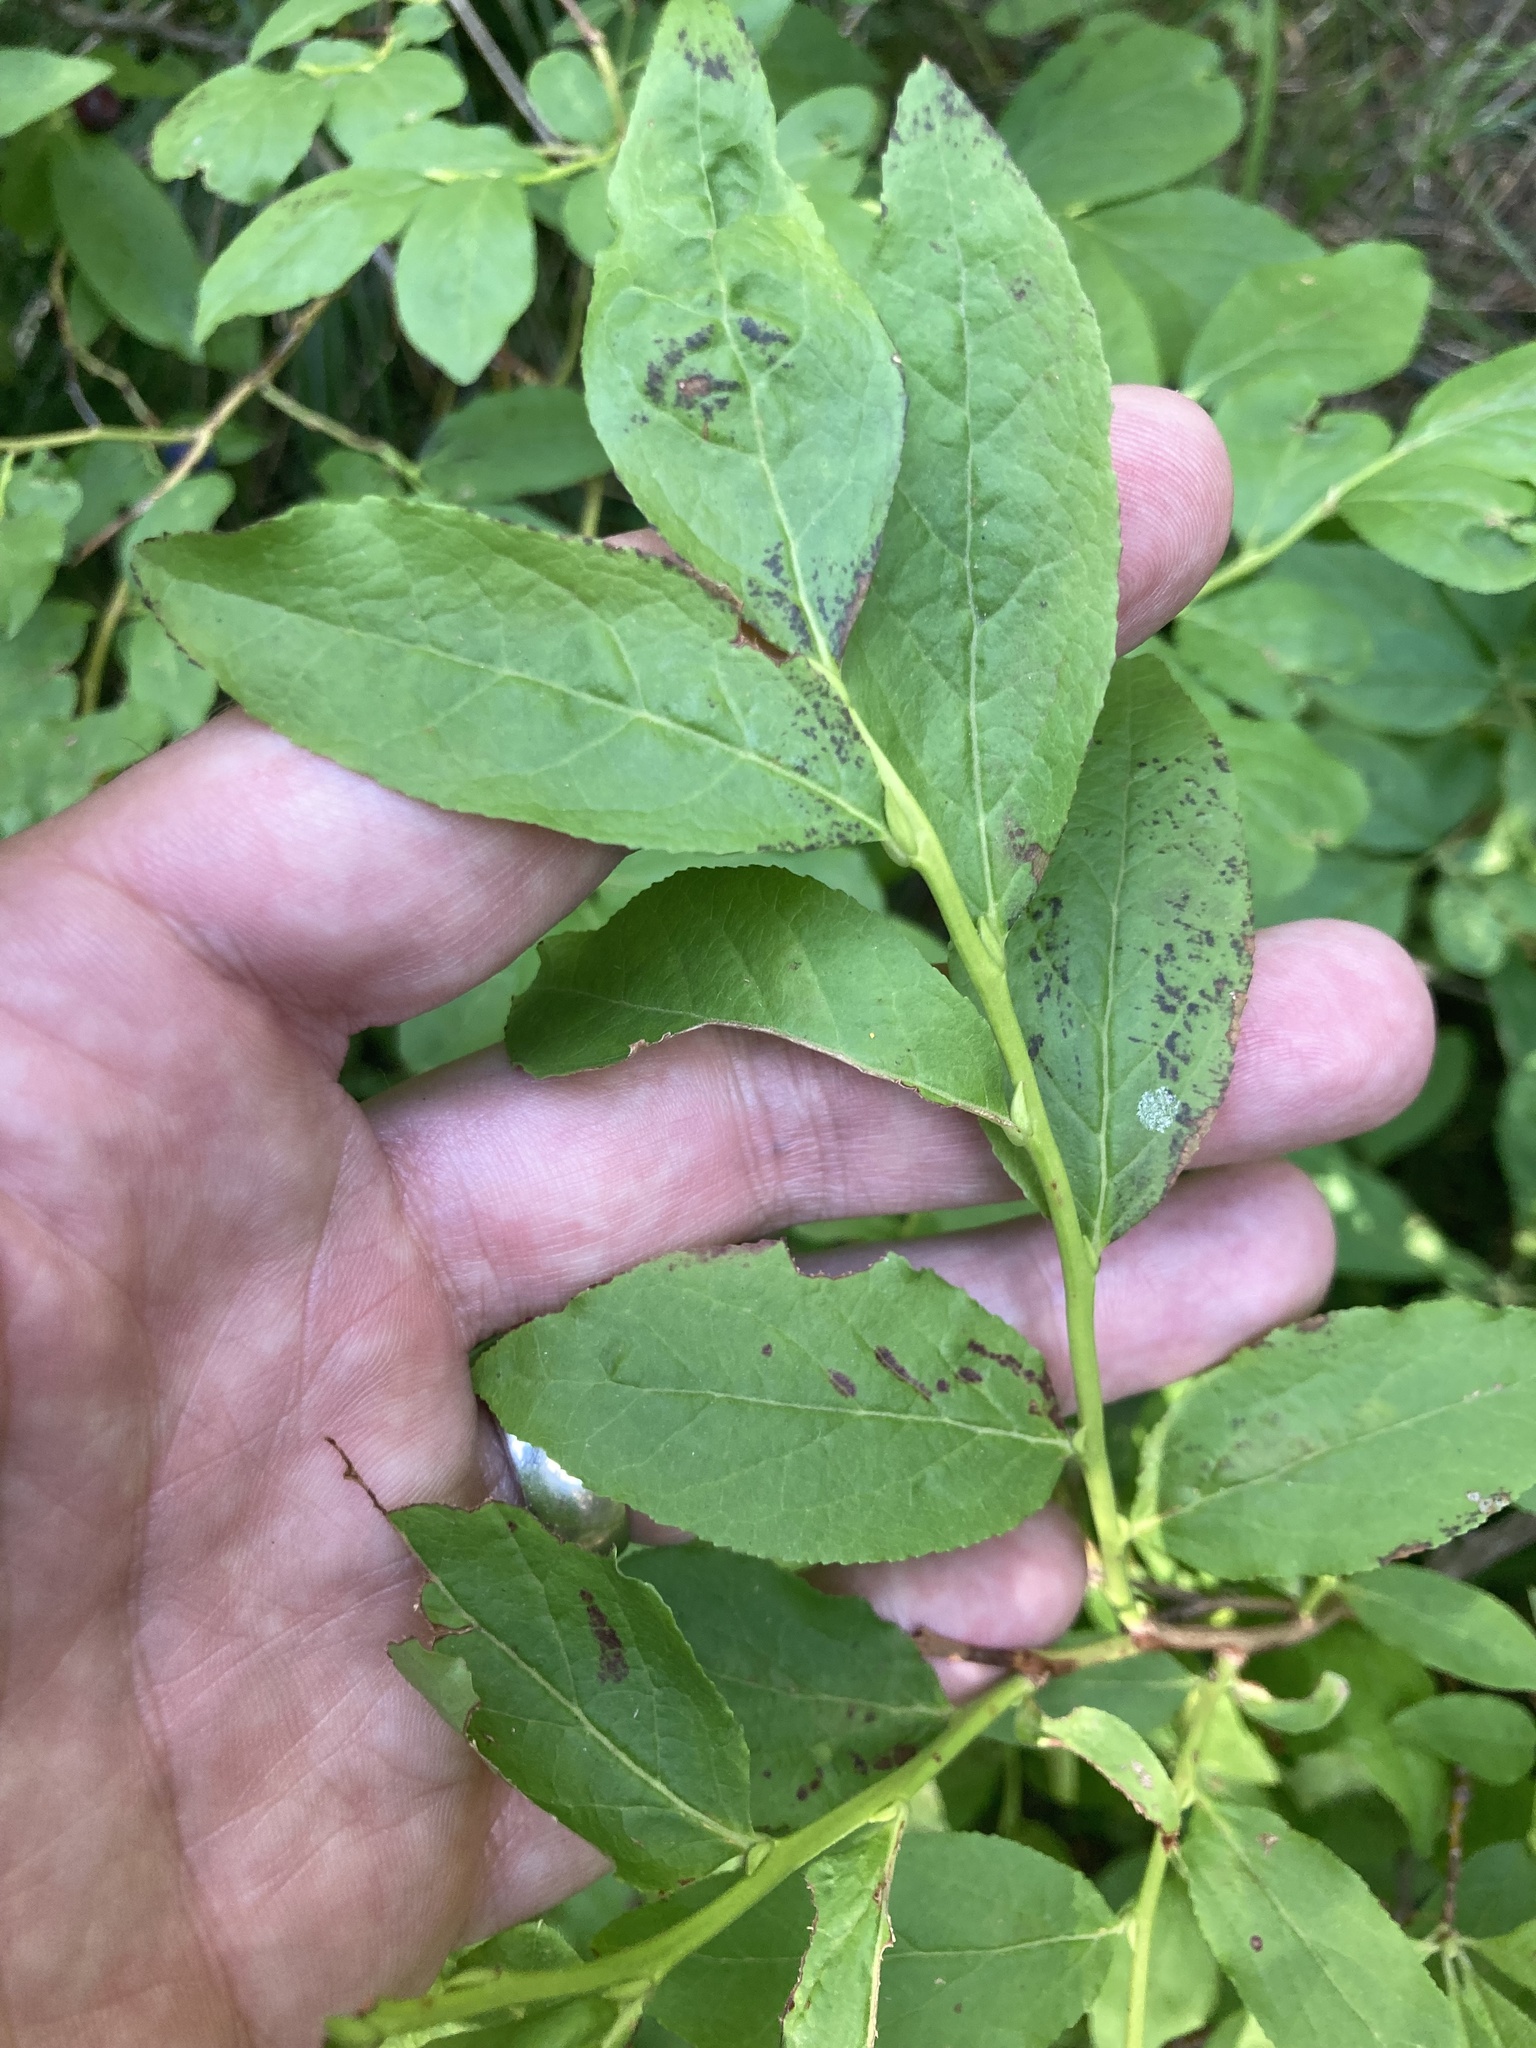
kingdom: Plantae
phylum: Tracheophyta
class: Magnoliopsida
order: Ericales
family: Ericaceae
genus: Vaccinium
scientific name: Vaccinium membranaceum
